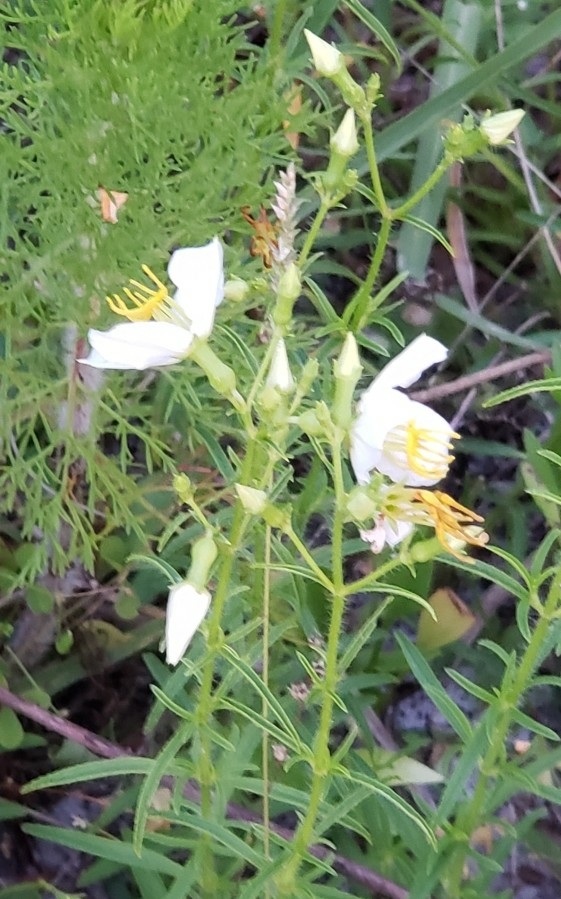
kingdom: Plantae
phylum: Tracheophyta
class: Magnoliopsida
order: Myrtales
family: Melastomataceae
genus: Rhexia
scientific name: Rhexia mariana
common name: Dull meadow-pitcher
